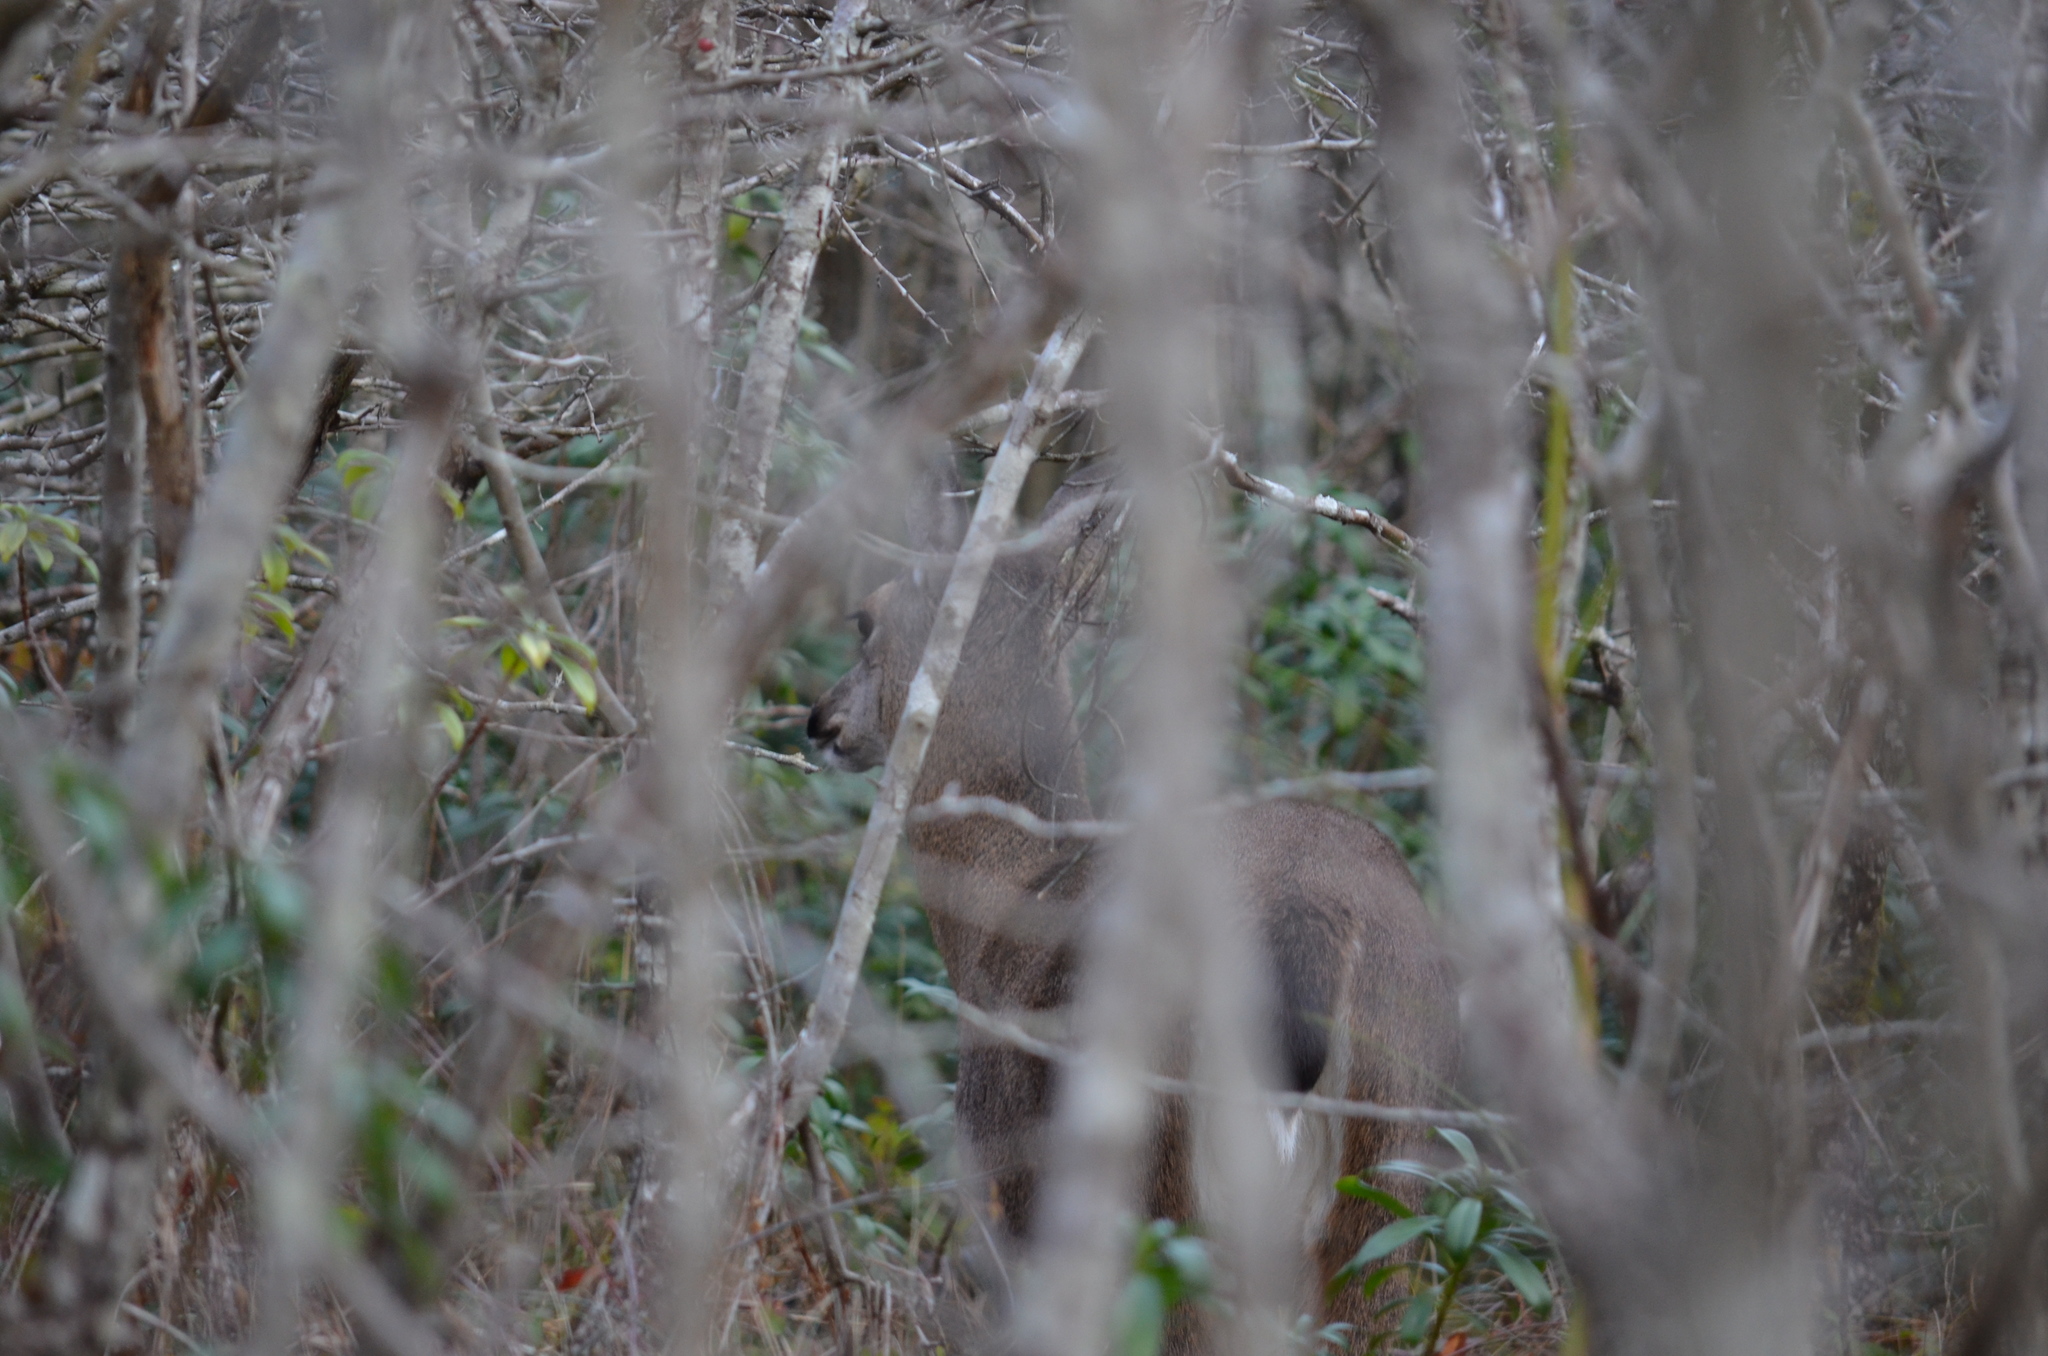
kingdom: Animalia
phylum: Chordata
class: Mammalia
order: Artiodactyla
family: Cervidae
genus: Odocoileus
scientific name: Odocoileus hemionus
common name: Mule deer
